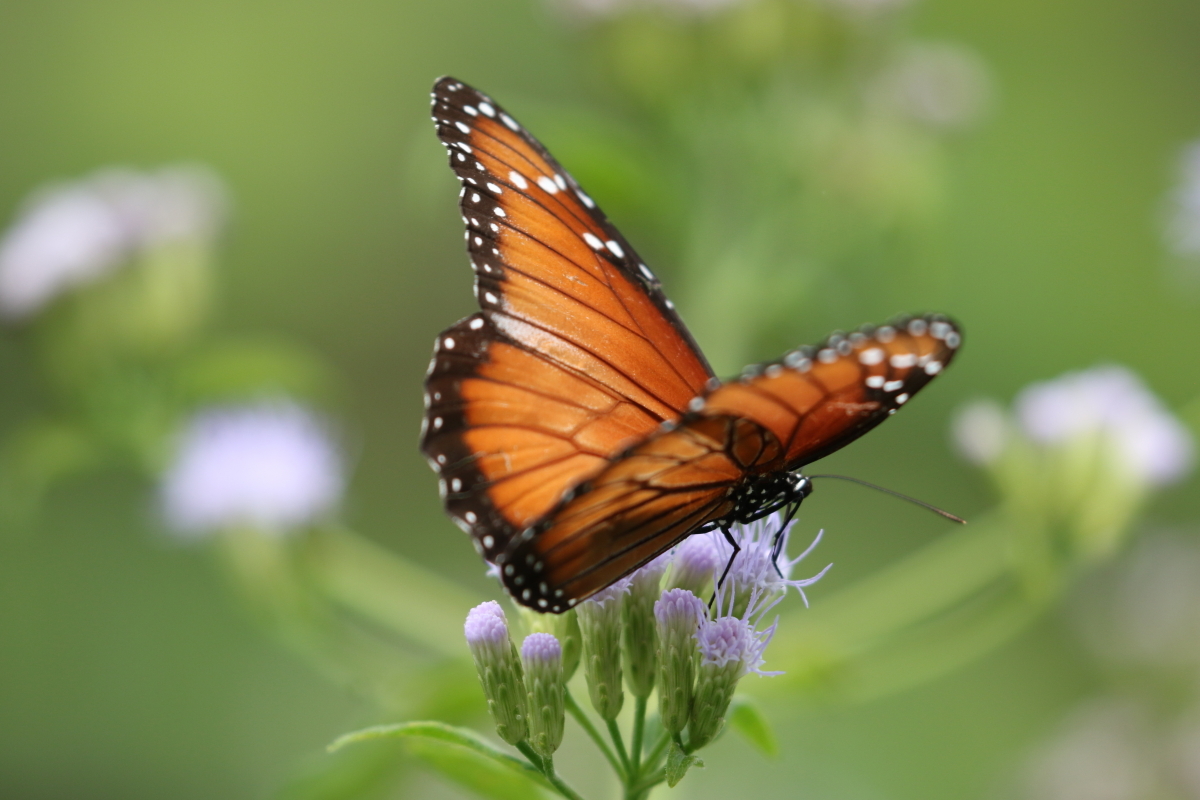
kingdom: Animalia
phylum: Arthropoda
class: Insecta
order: Lepidoptera
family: Nymphalidae
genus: Danaus
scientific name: Danaus eresimus
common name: Soldier
